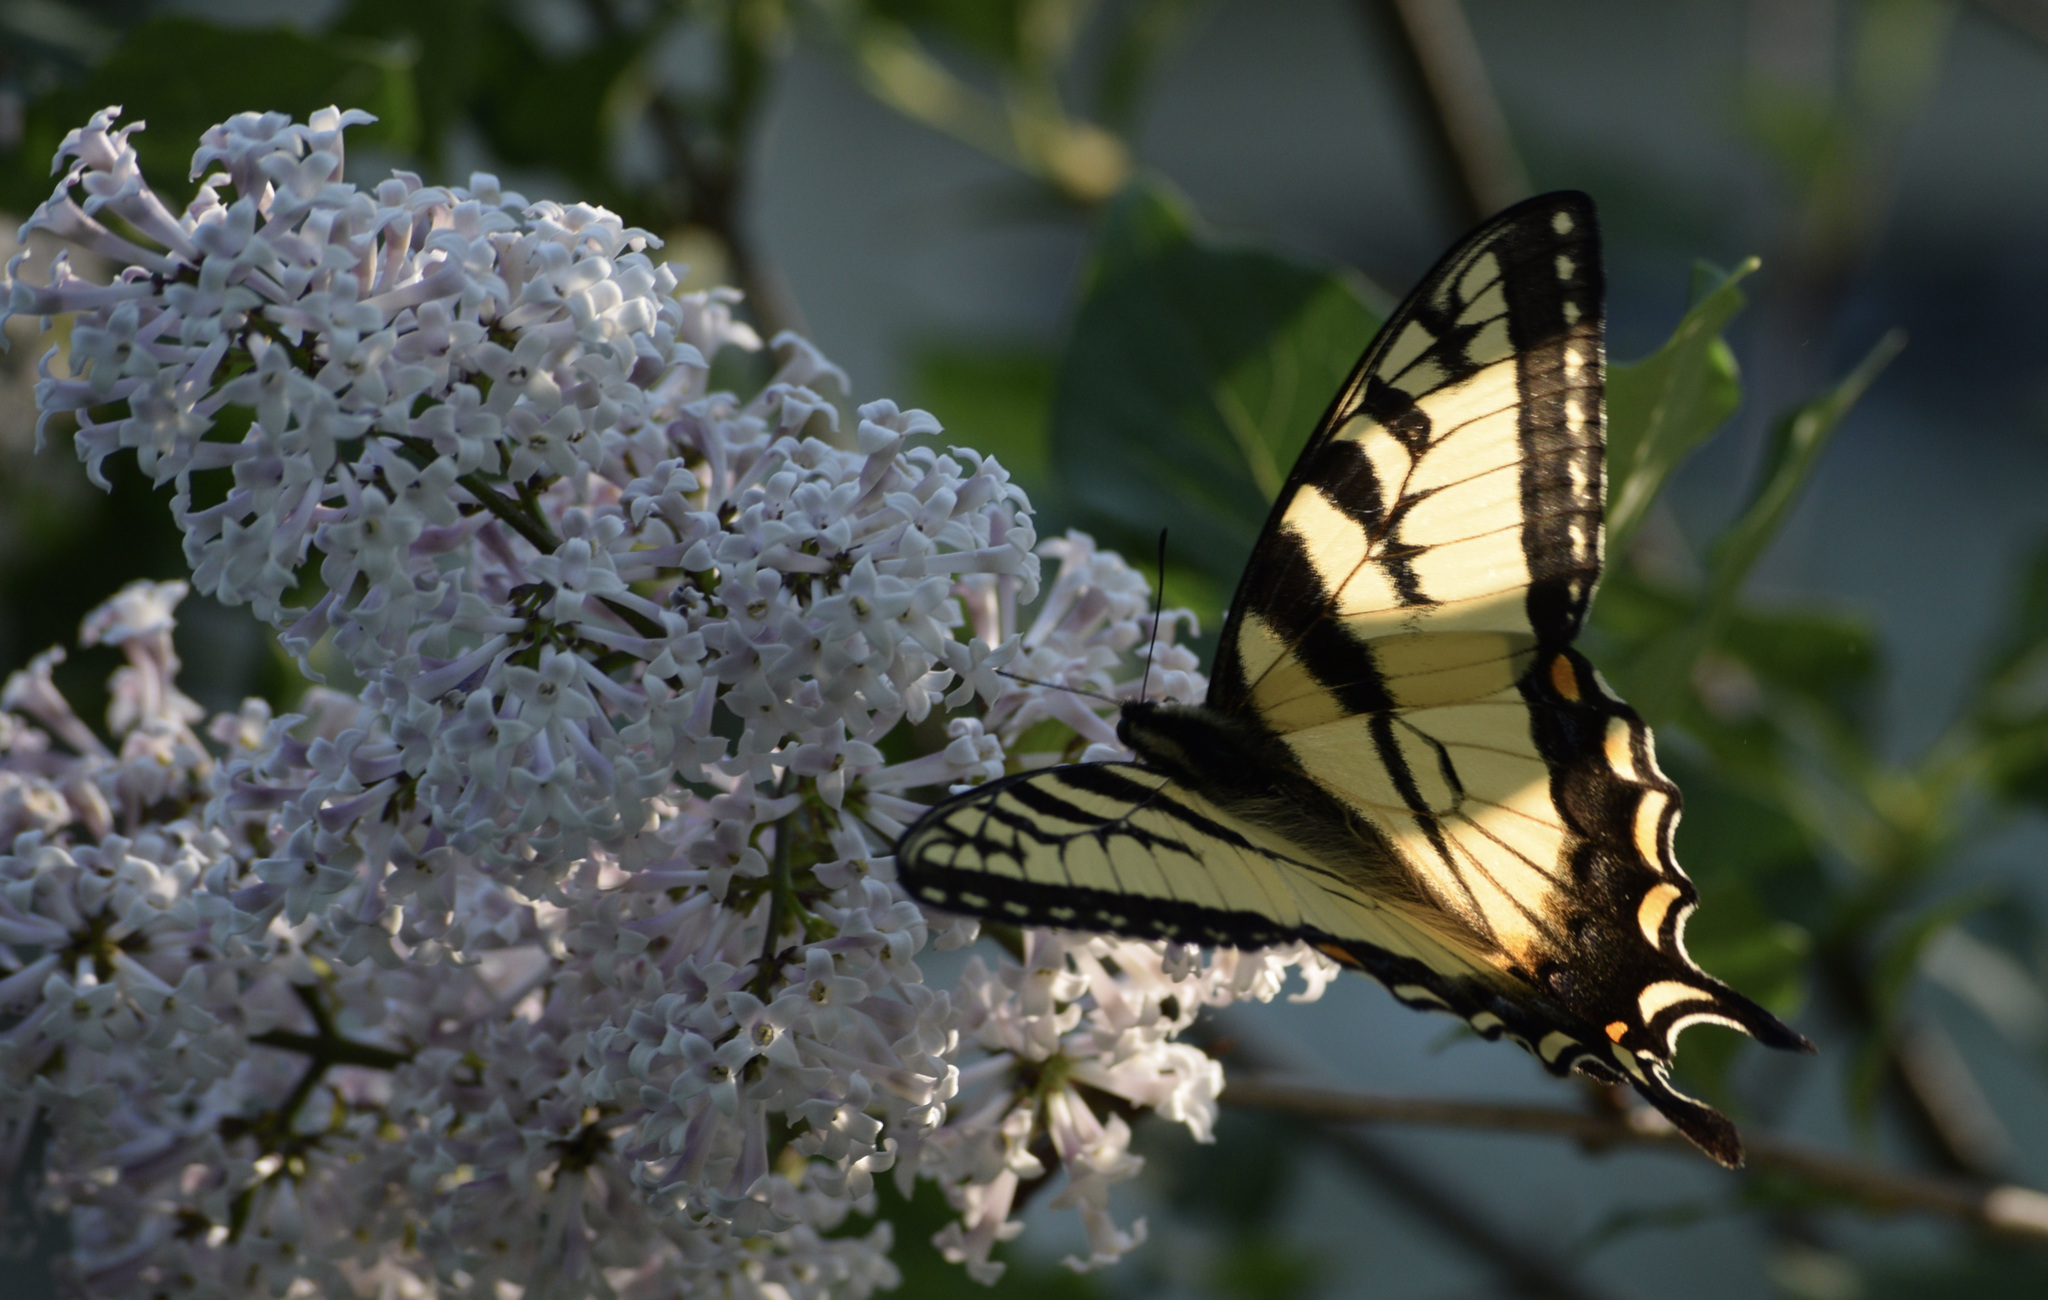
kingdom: Animalia
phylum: Arthropoda
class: Insecta
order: Lepidoptera
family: Papilionidae
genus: Papilio
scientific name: Papilio canadensis
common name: Canadian tiger swallowtail
